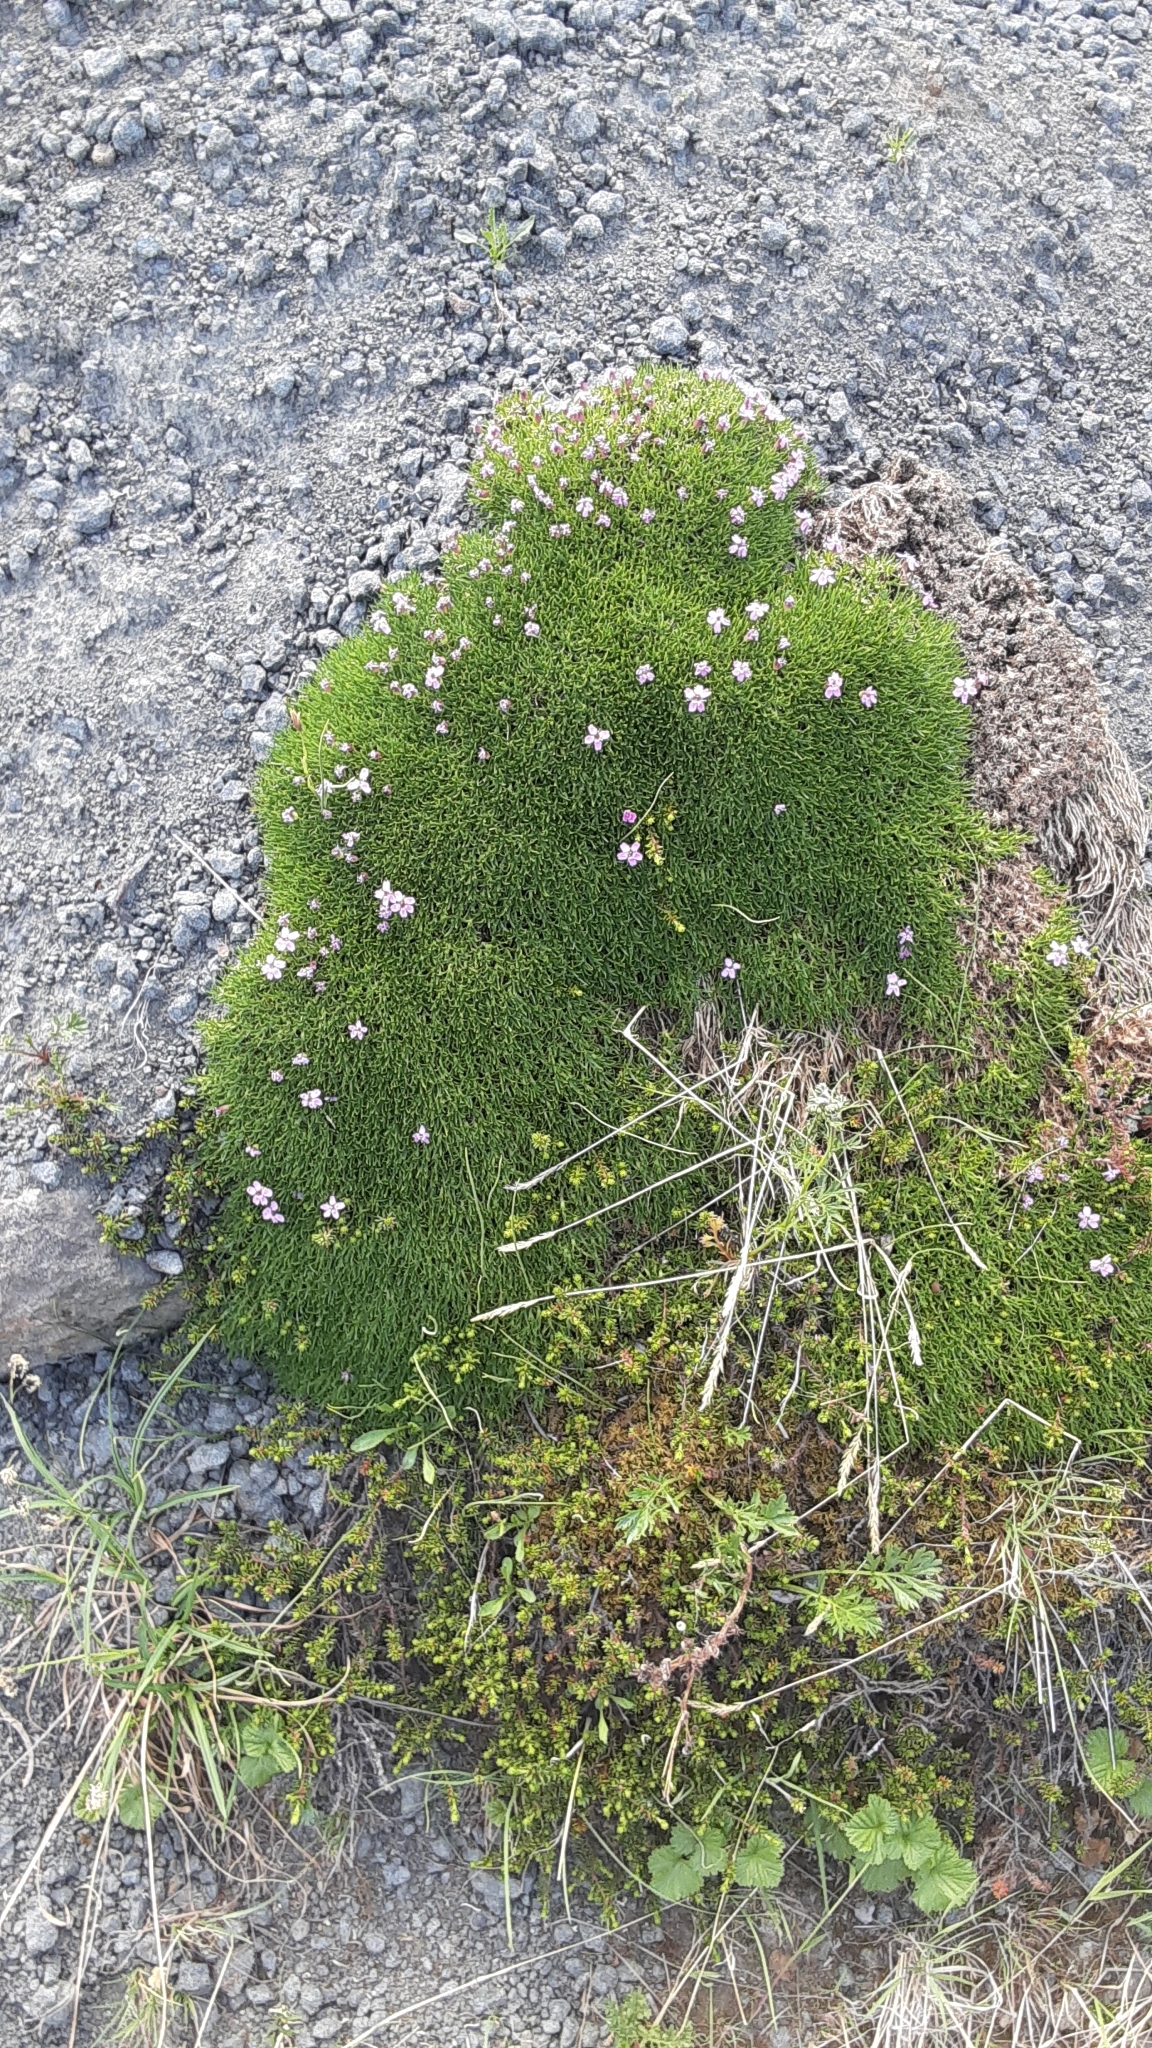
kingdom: Plantae
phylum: Tracheophyta
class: Magnoliopsida
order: Caryophyllales
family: Caryophyllaceae
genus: Silene
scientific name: Silene acaulis
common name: Moss campion
